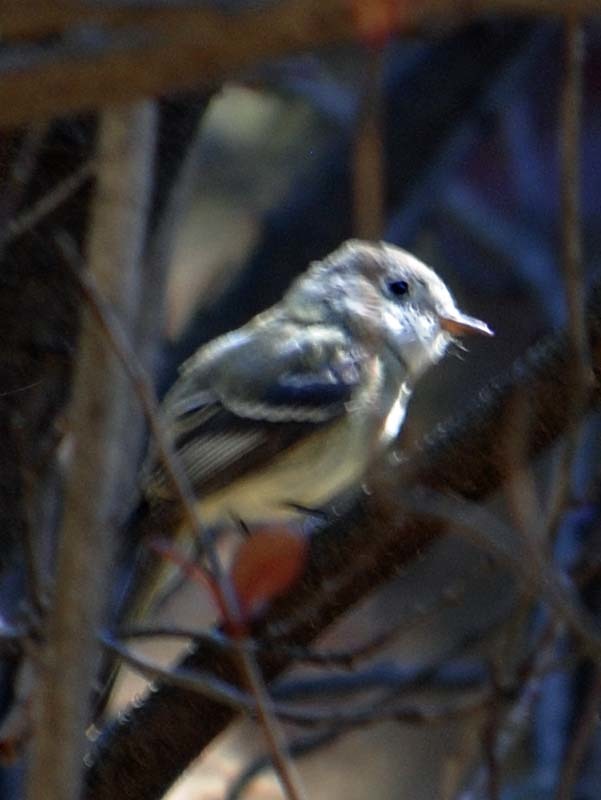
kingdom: Animalia
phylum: Chordata
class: Aves
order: Passeriformes
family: Tyrannidae
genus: Empidonax
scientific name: Empidonax wrightii
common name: Gray flycatcher
